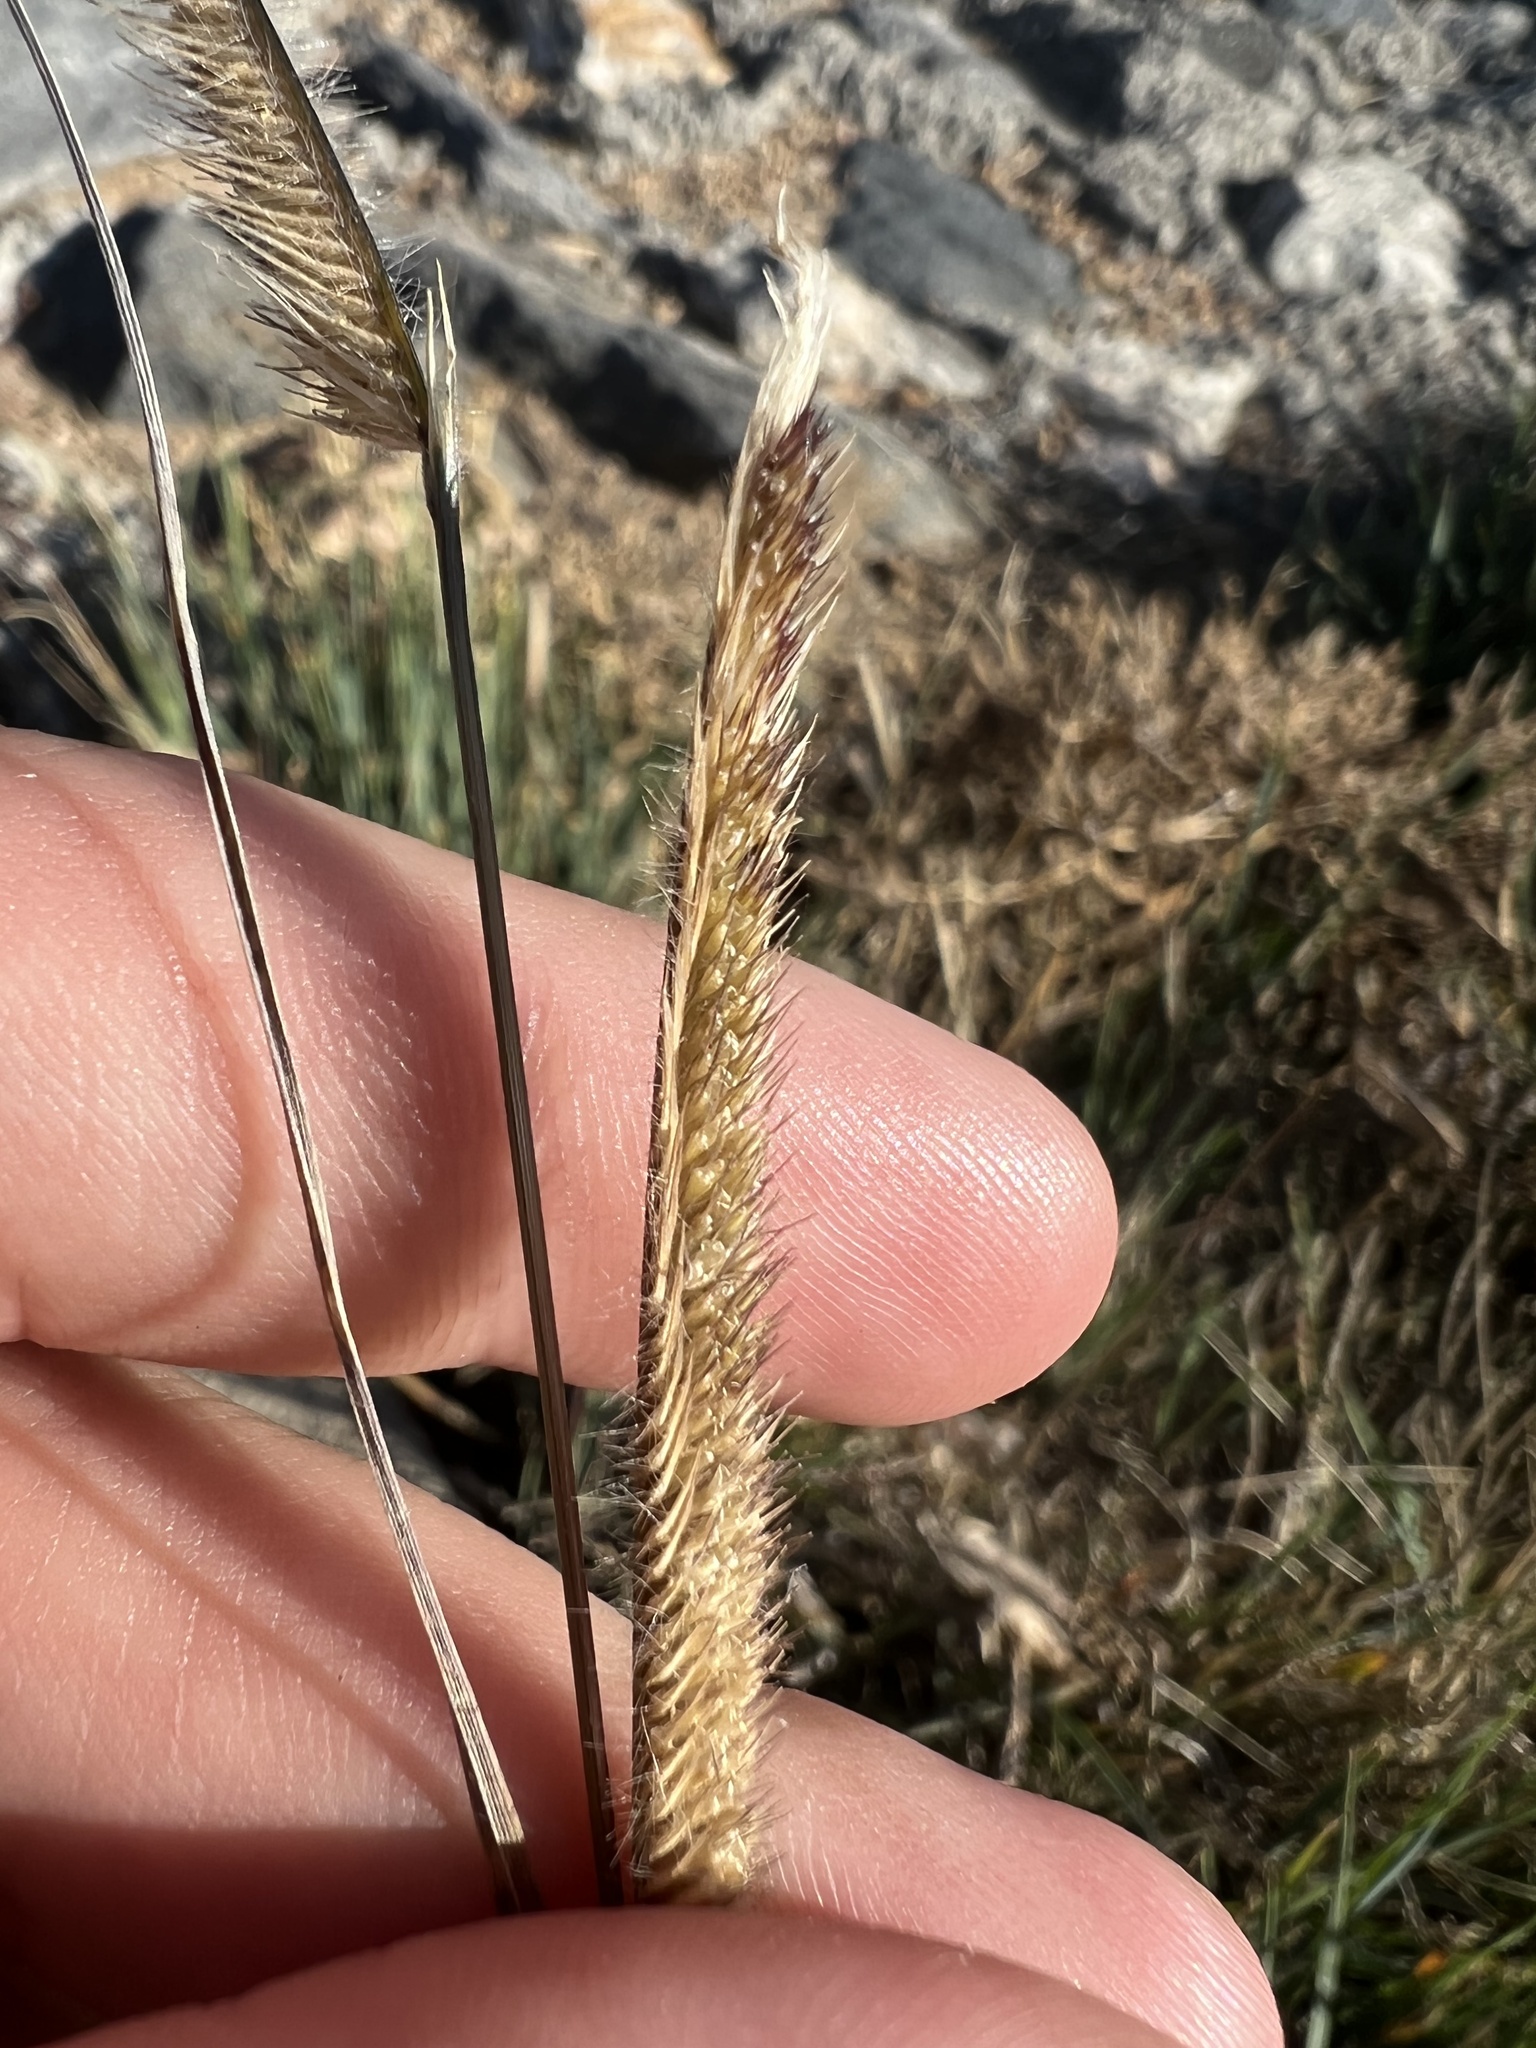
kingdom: Plantae
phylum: Tracheophyta
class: Liliopsida
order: Poales
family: Poaceae
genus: Bouteloua
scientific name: Bouteloua hirsuta
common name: Hairy grama
